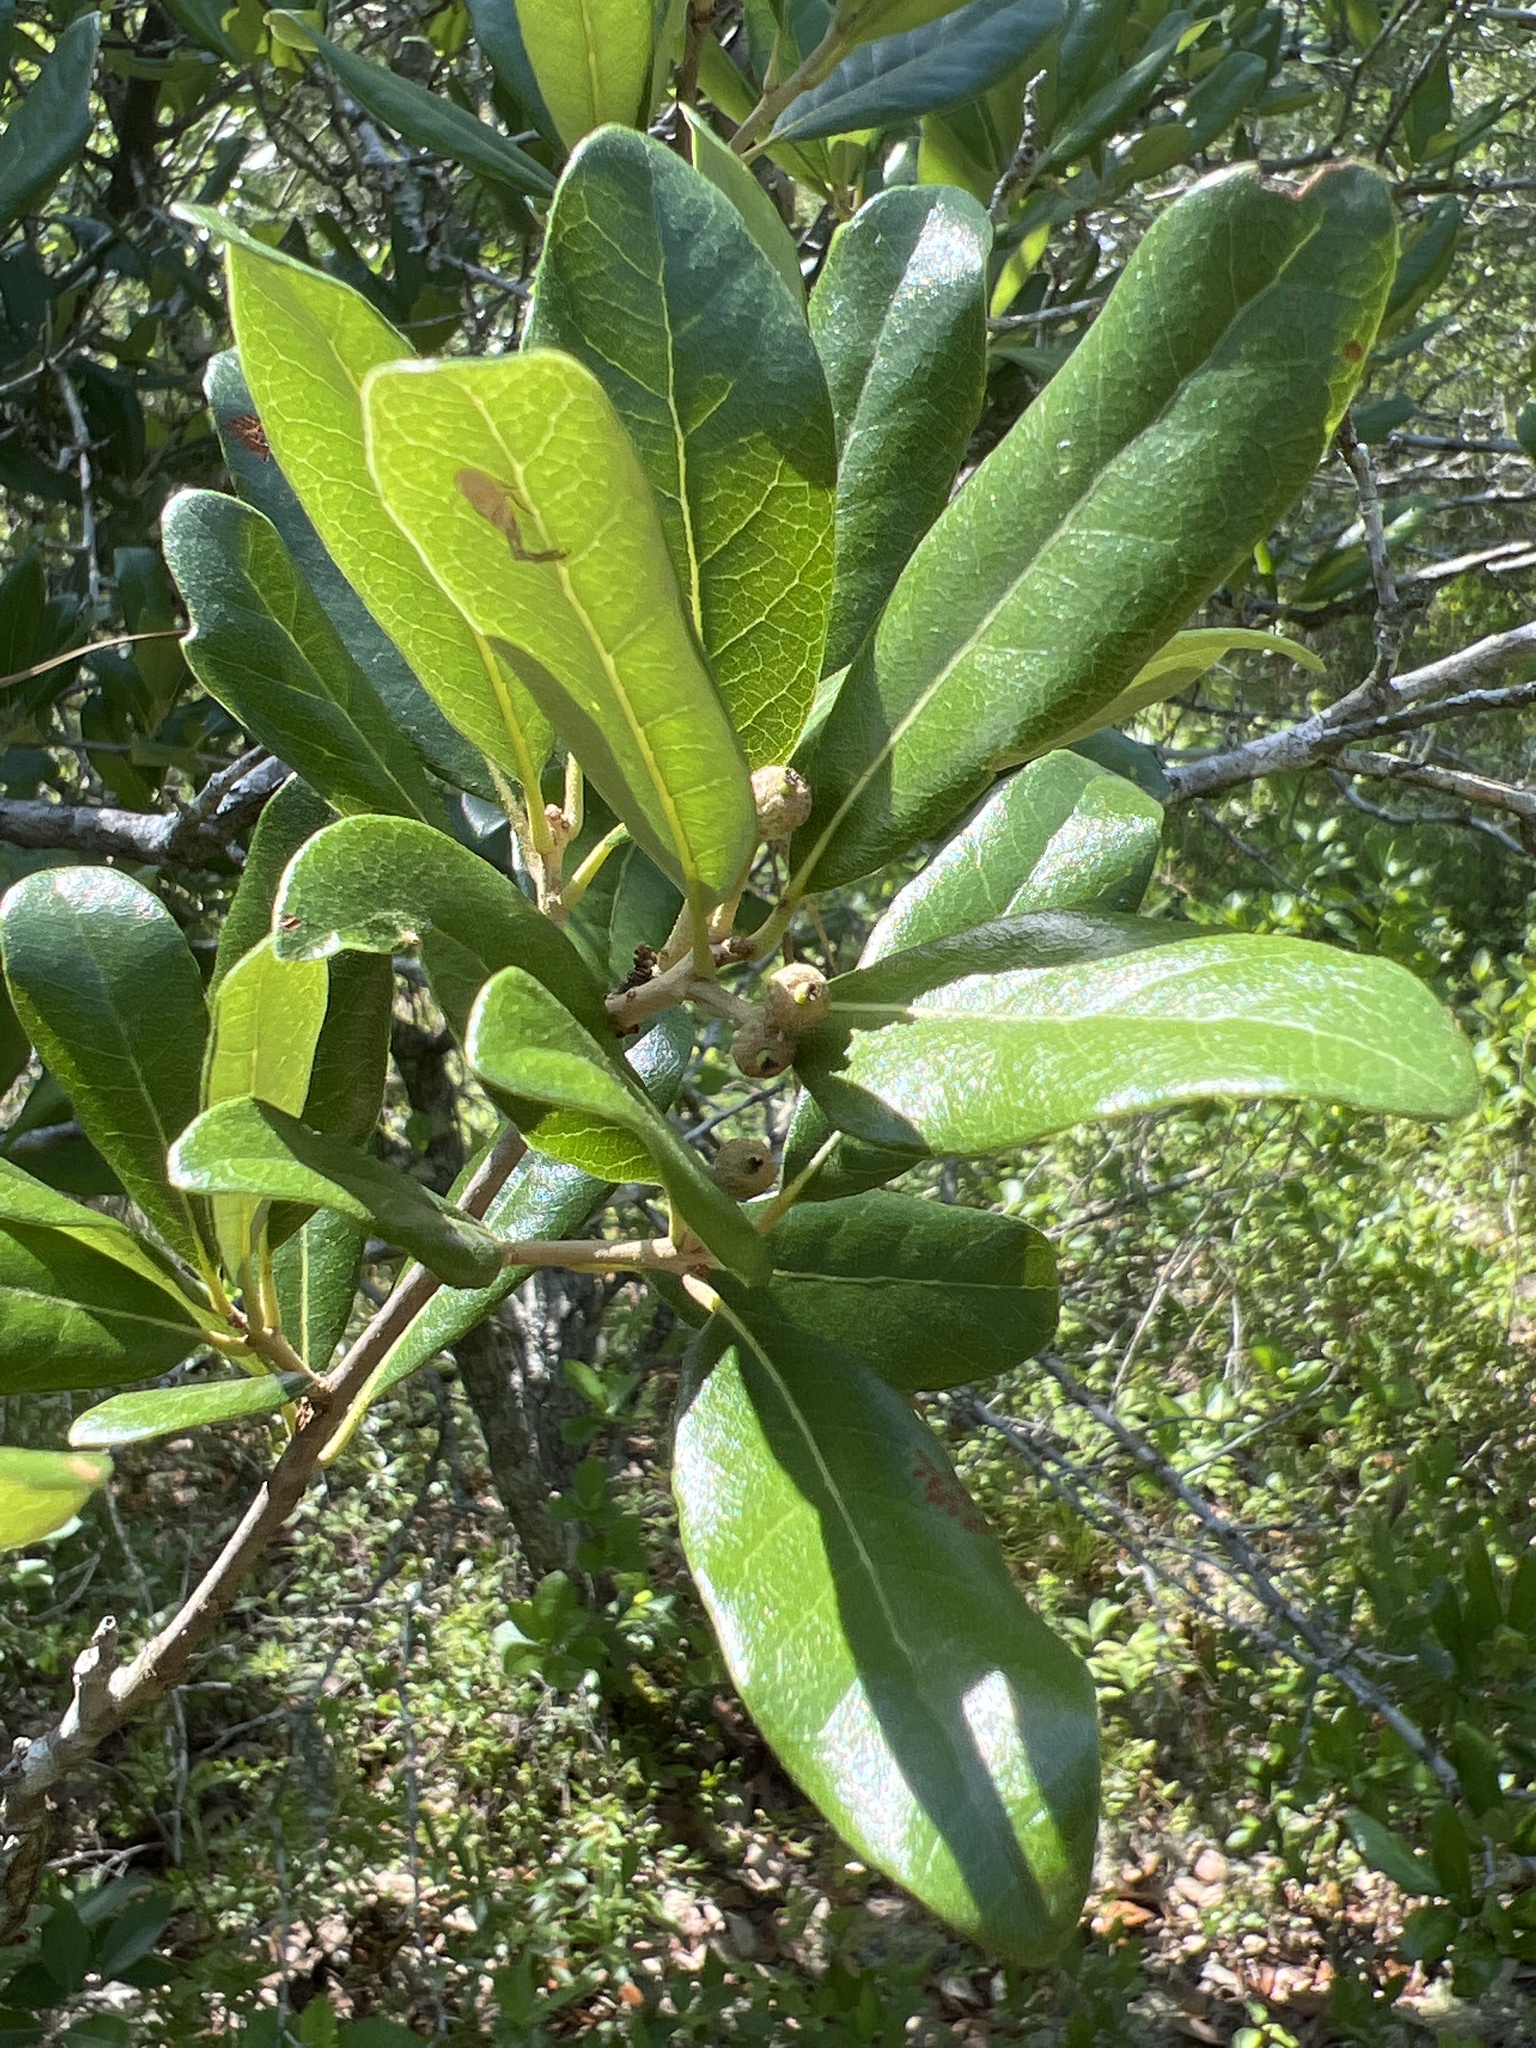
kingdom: Plantae
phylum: Tracheophyta
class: Magnoliopsida
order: Fagales
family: Fagaceae
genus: Quercus
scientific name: Quercus virginiana
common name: Southern live oak
